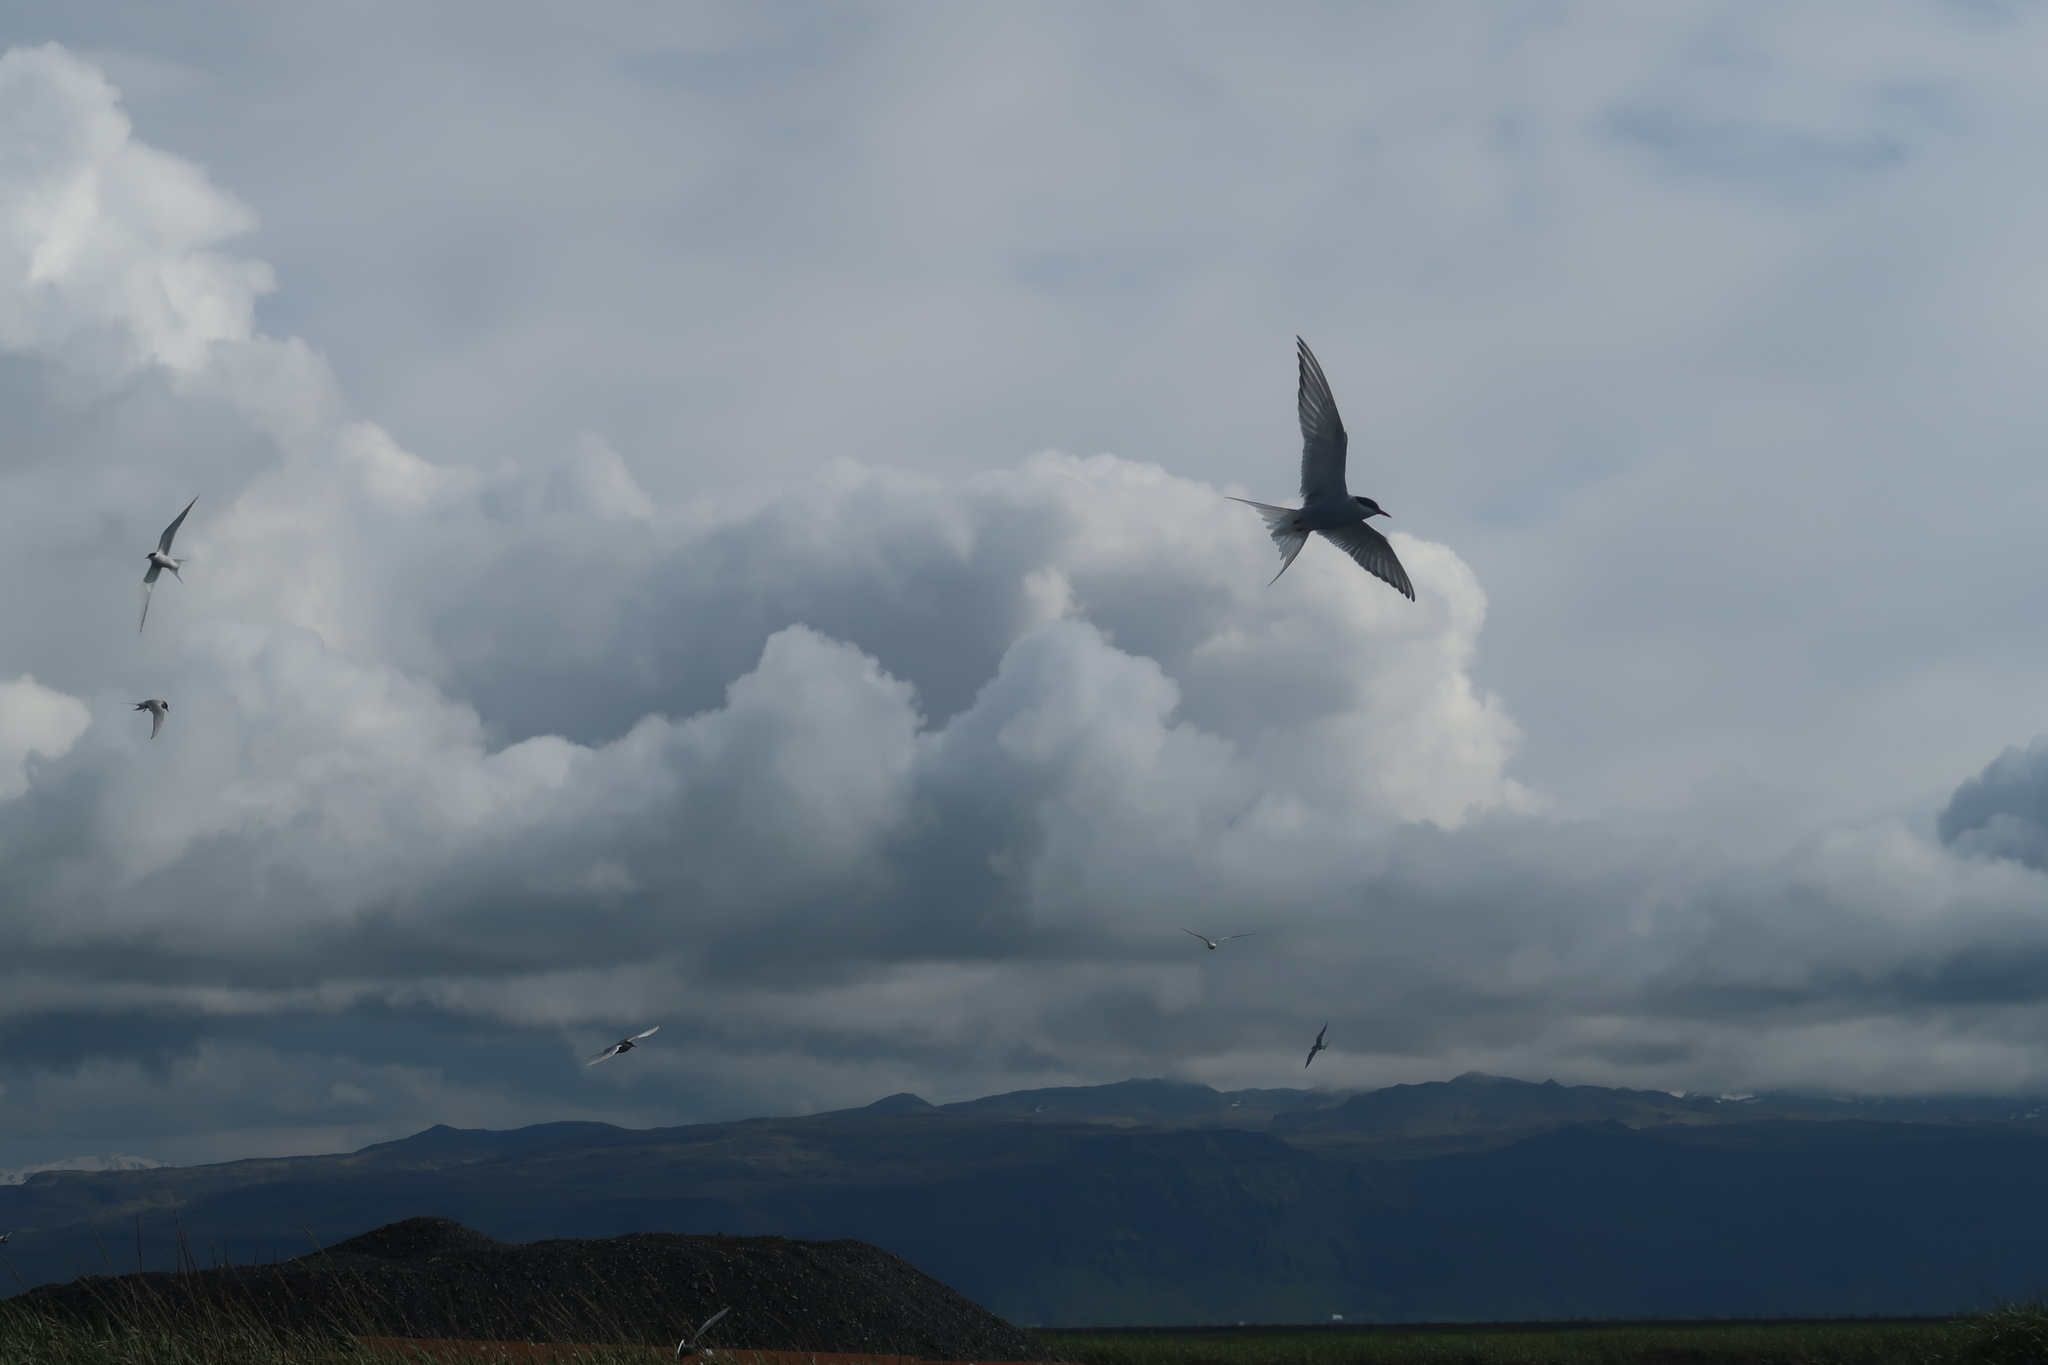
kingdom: Animalia
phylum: Chordata
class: Aves
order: Charadriiformes
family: Laridae
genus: Sterna
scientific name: Sterna paradisaea
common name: Arctic tern
